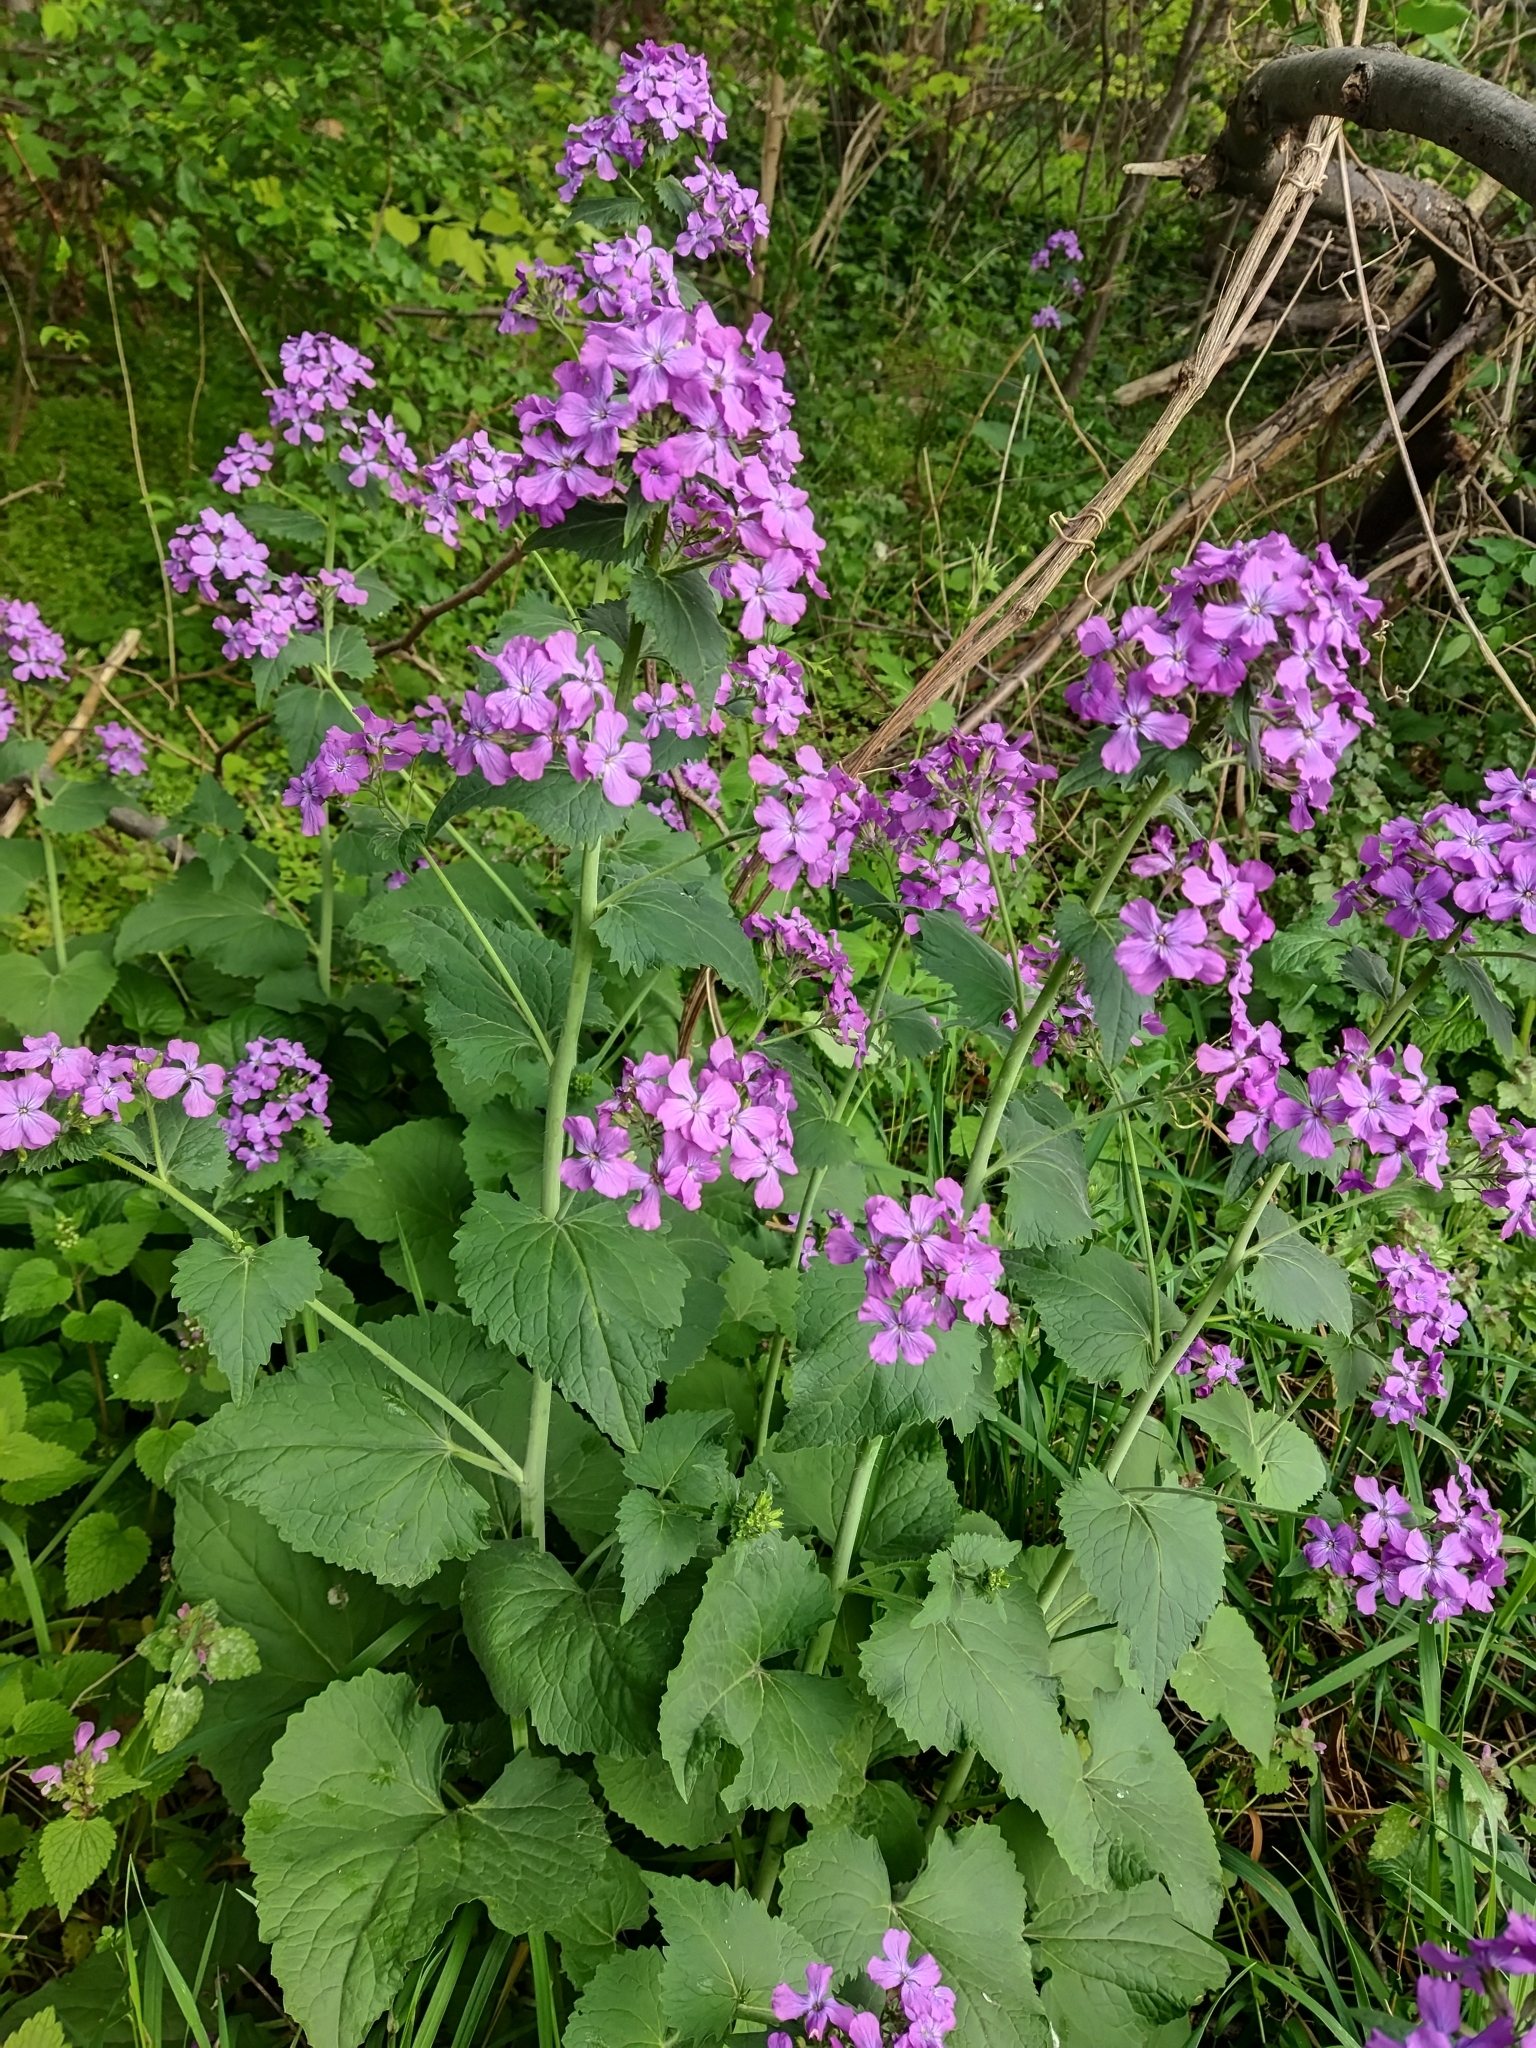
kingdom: Plantae
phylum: Tracheophyta
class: Magnoliopsida
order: Brassicales
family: Brassicaceae
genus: Lunaria
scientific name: Lunaria annua
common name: Honesty
